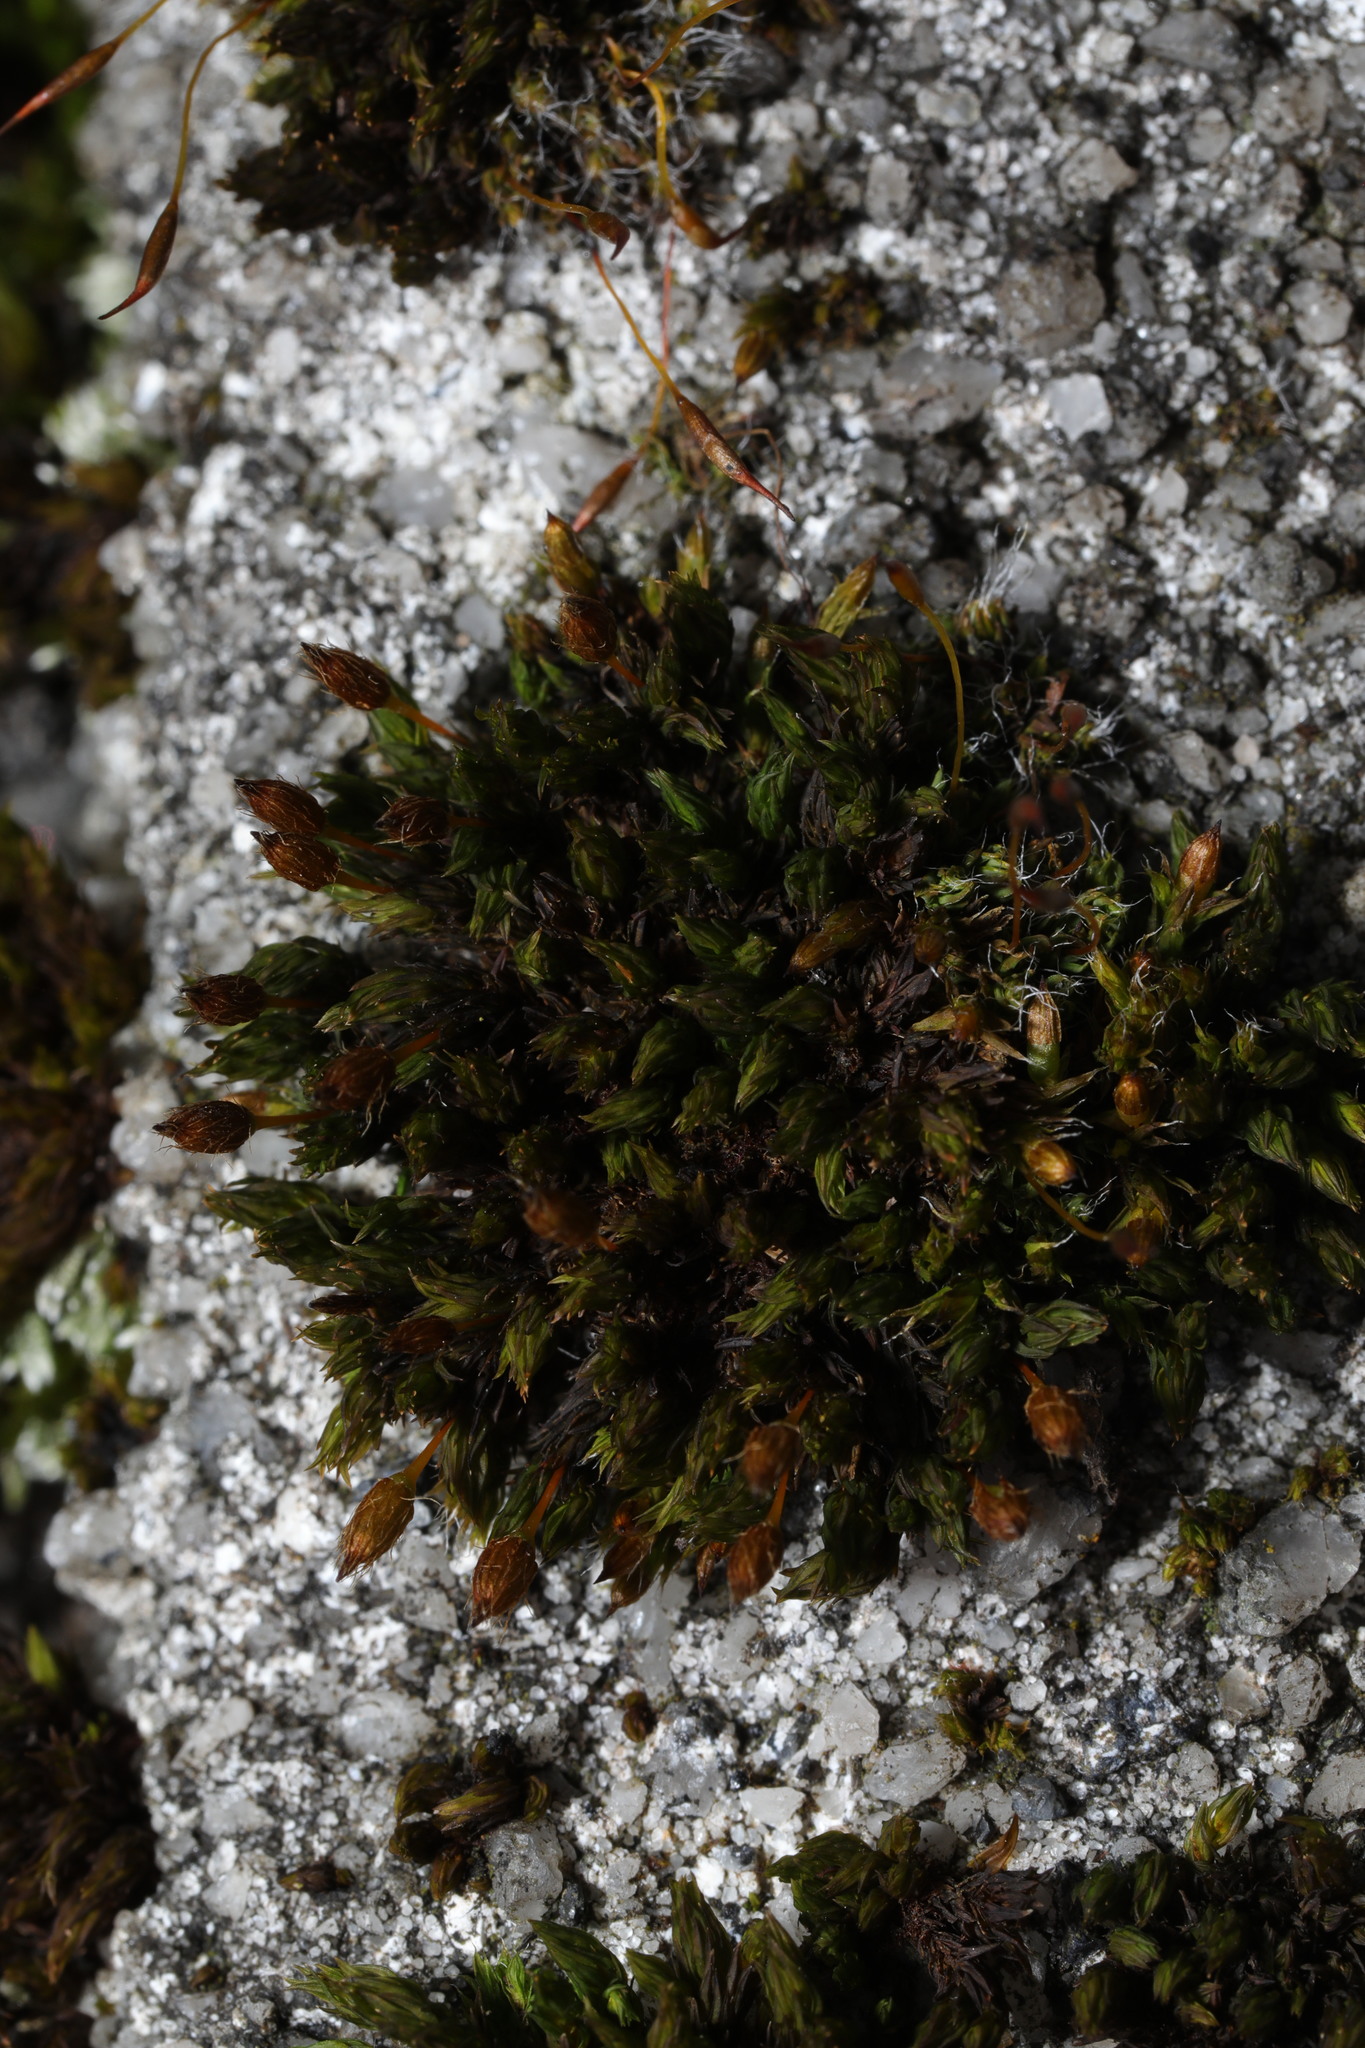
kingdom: Plantae
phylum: Bryophyta
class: Bryopsida
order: Orthotrichales
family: Orthotrichaceae
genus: Orthotrichum
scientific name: Orthotrichum anomalum
